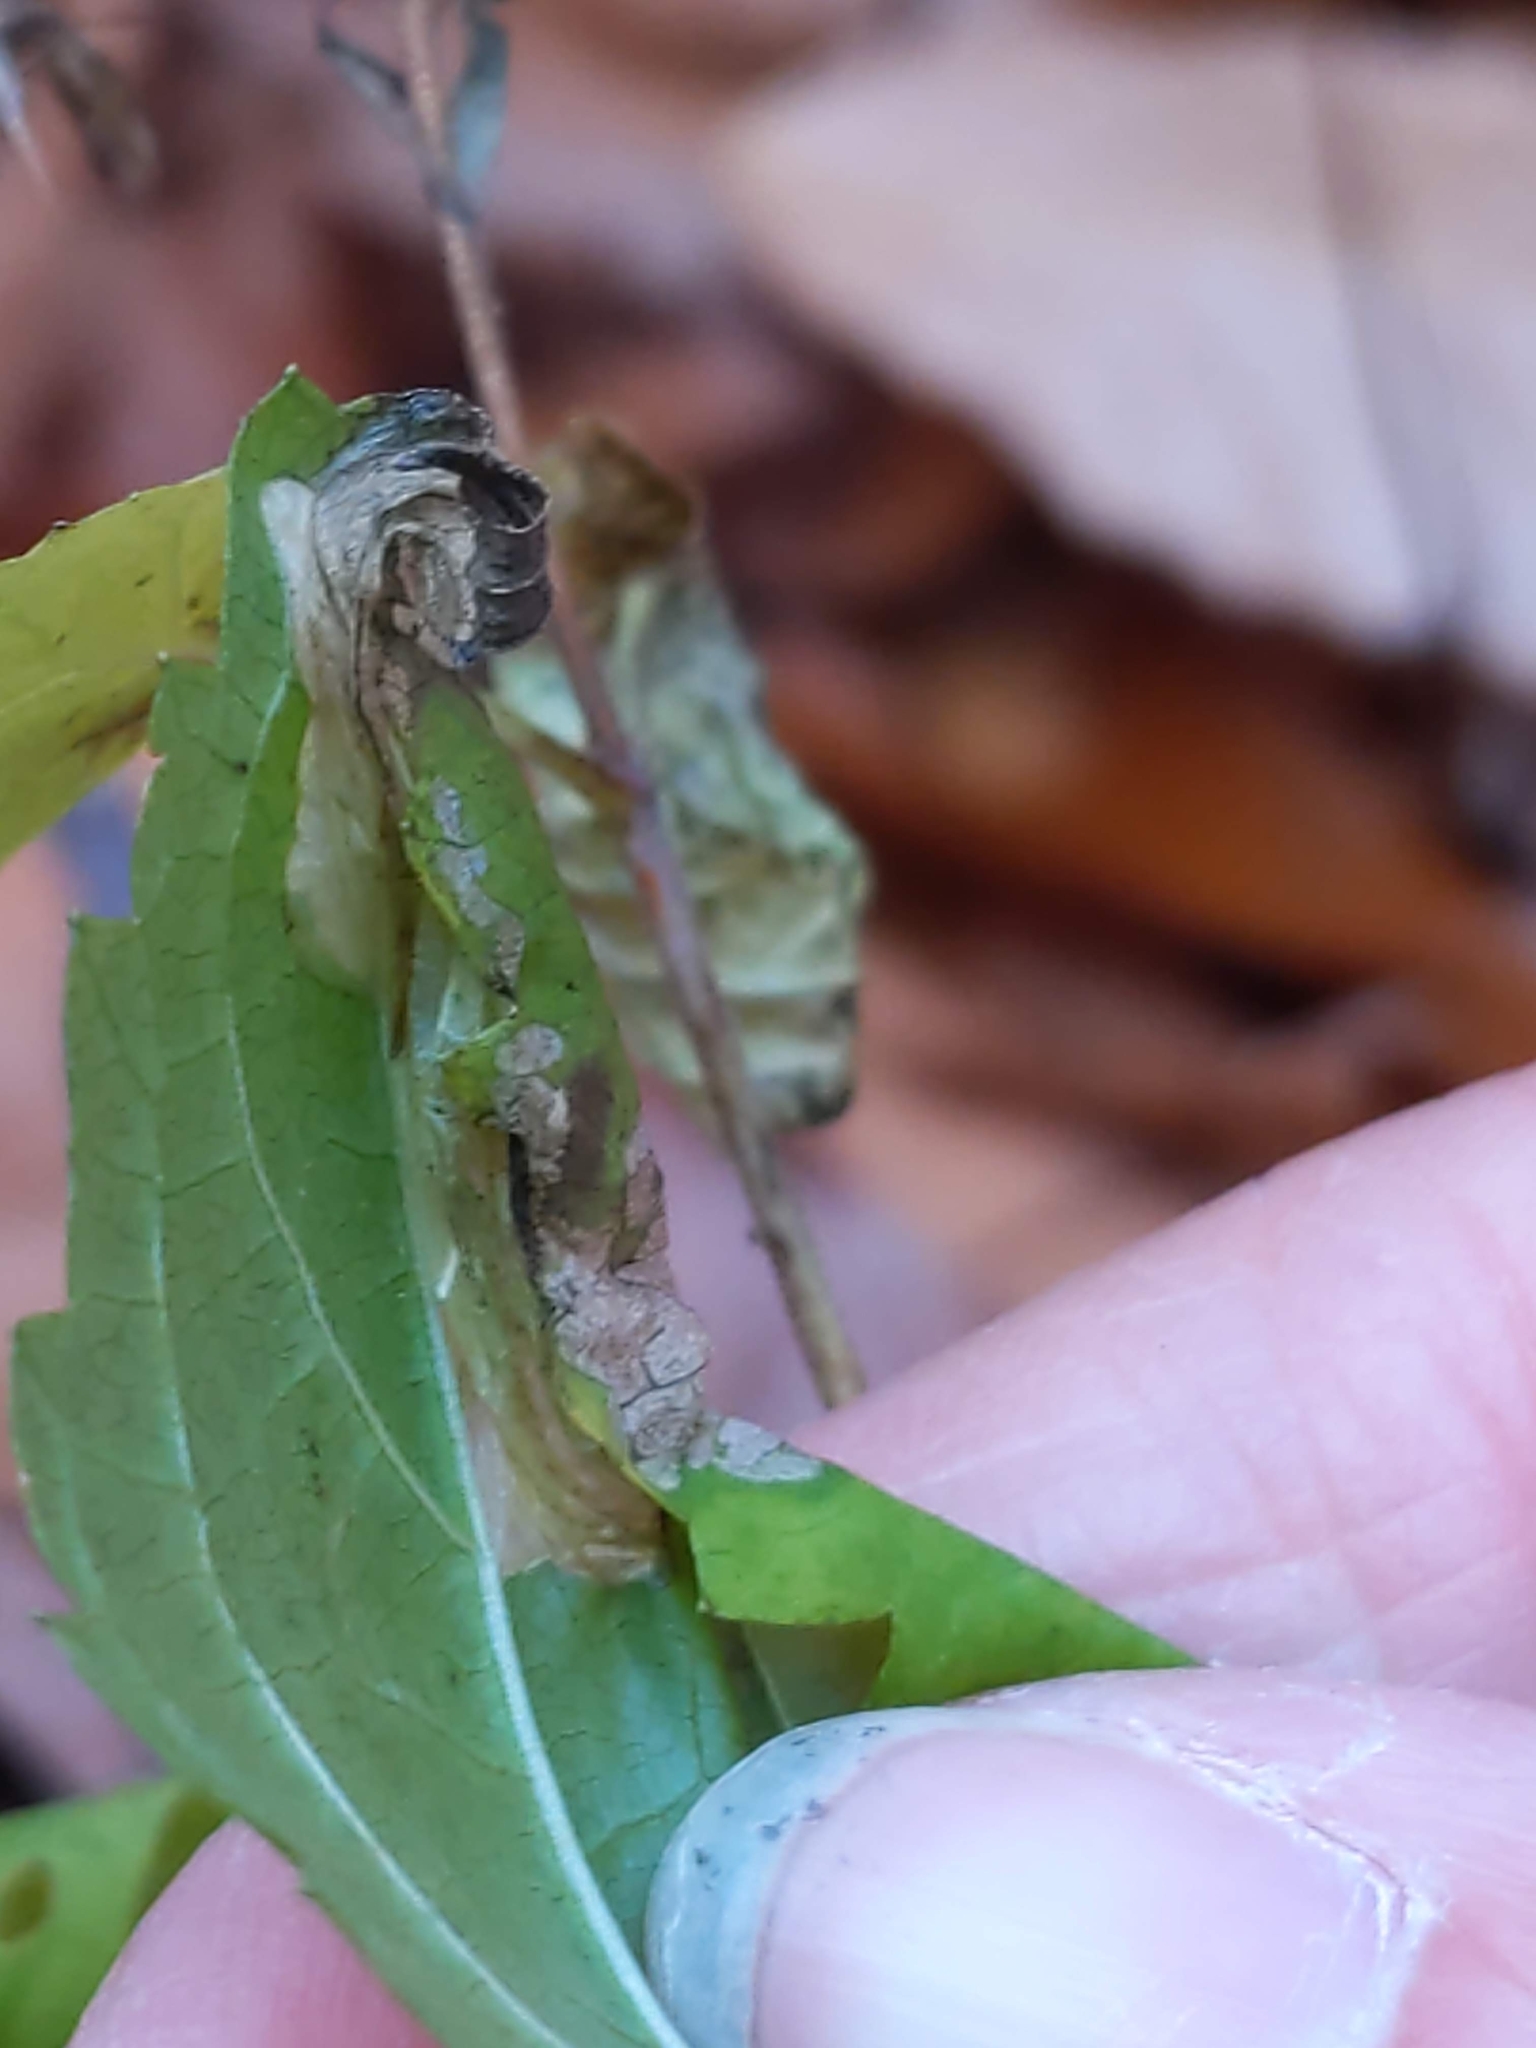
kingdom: Animalia
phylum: Arthropoda
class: Insecta
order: Lepidoptera
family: Gracillariidae
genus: Leucospilapteryx
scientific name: Leucospilapteryx venustella
